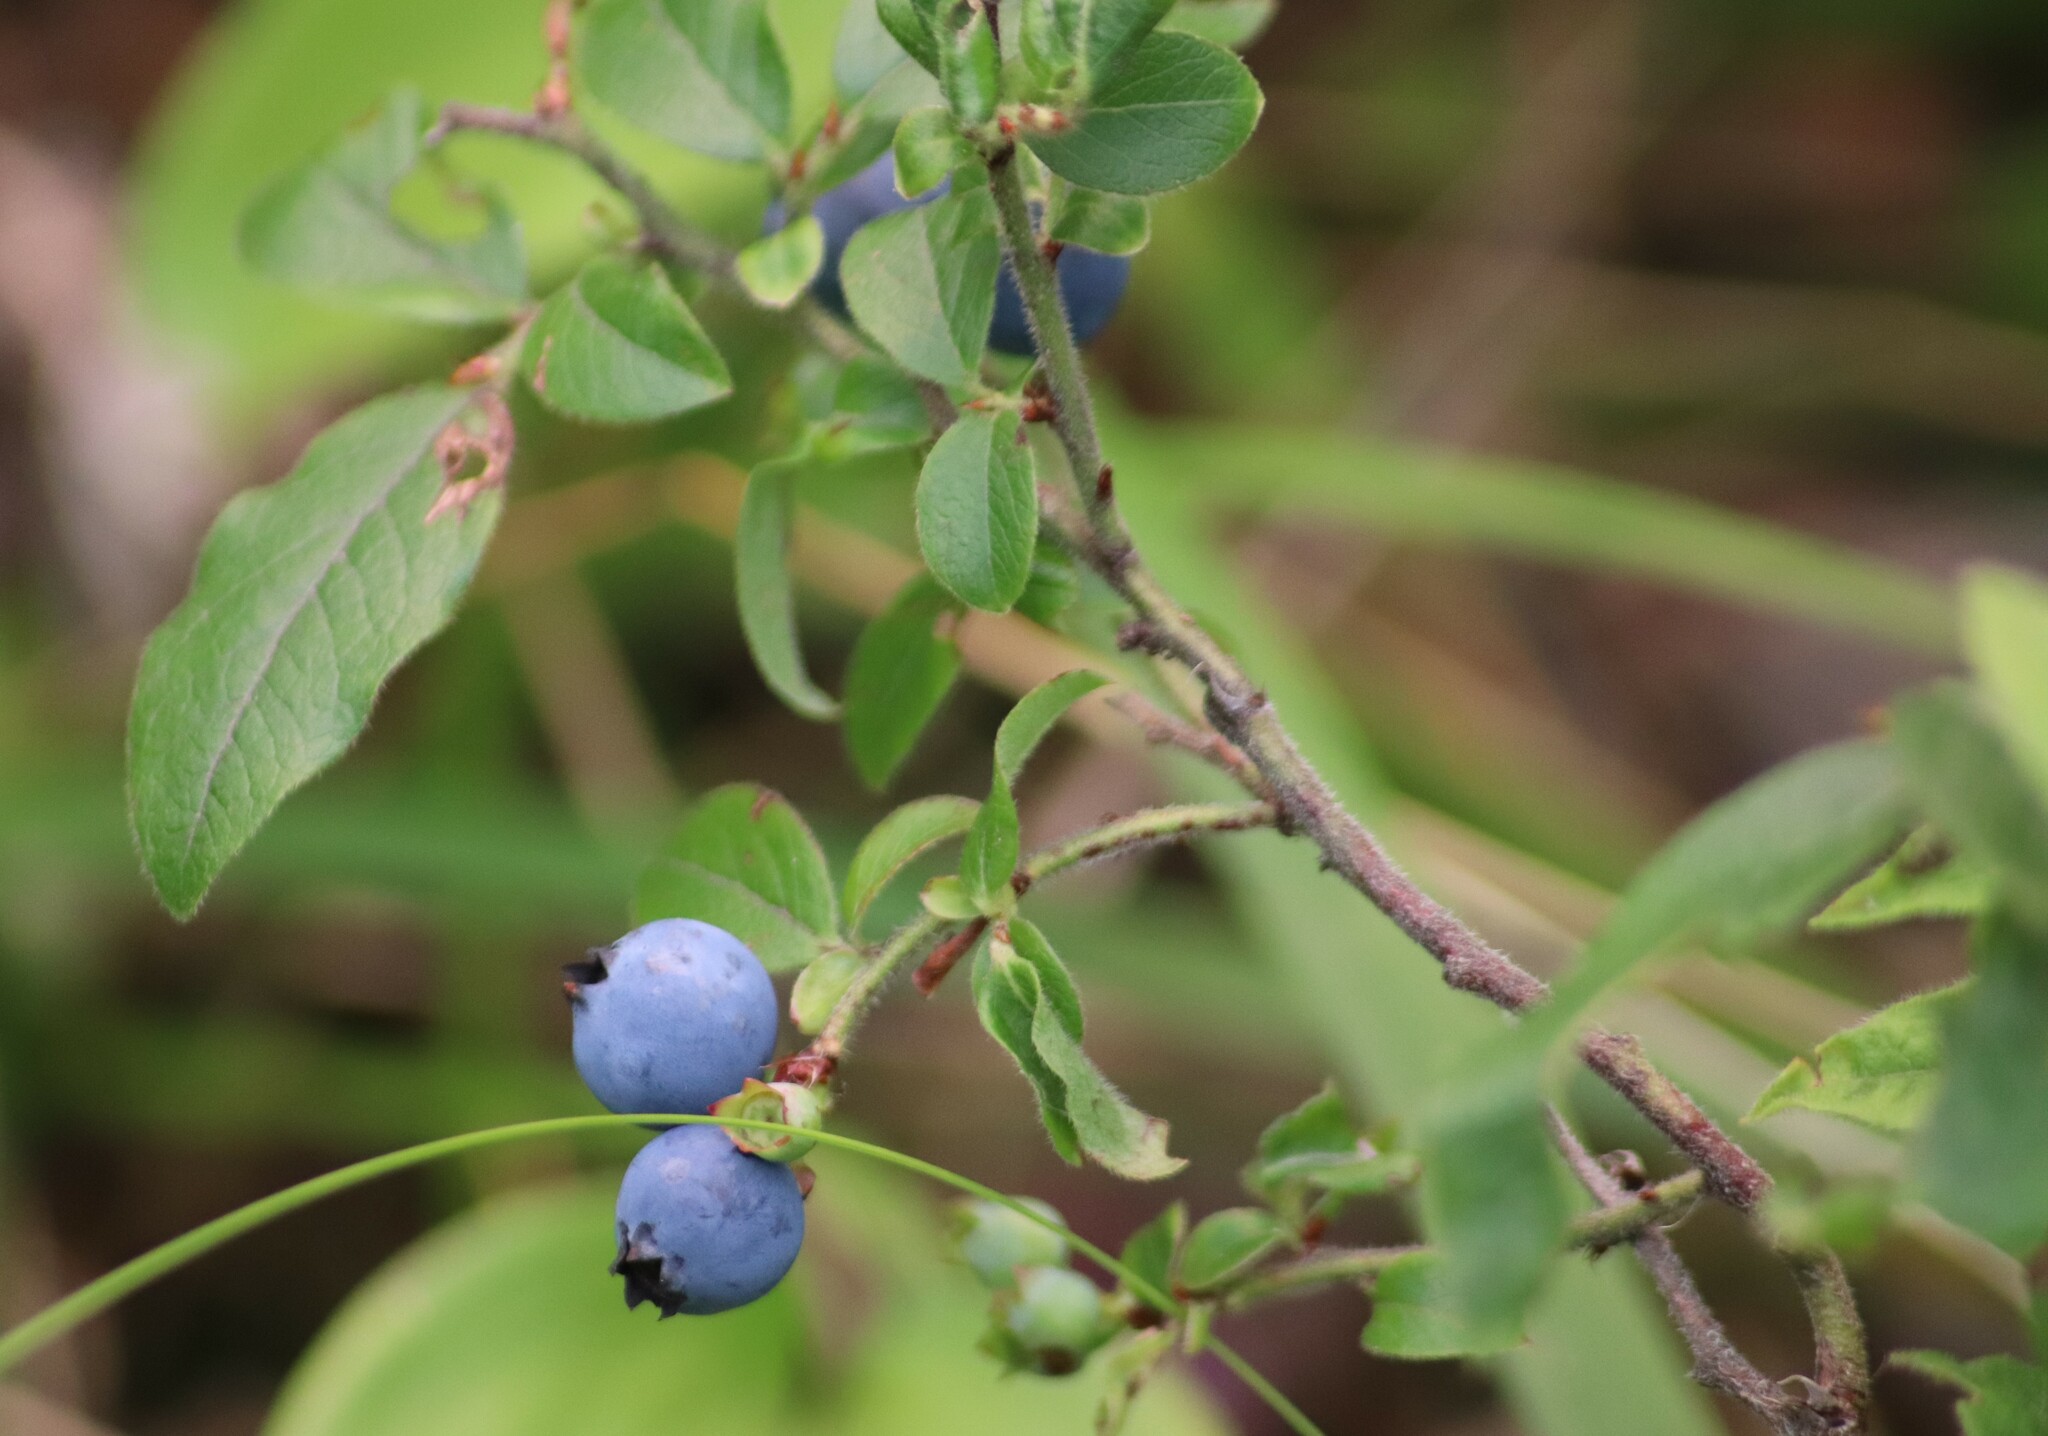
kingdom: Plantae
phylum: Tracheophyta
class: Magnoliopsida
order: Ericales
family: Ericaceae
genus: Vaccinium
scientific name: Vaccinium myrtilloides
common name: Canada blueberry
